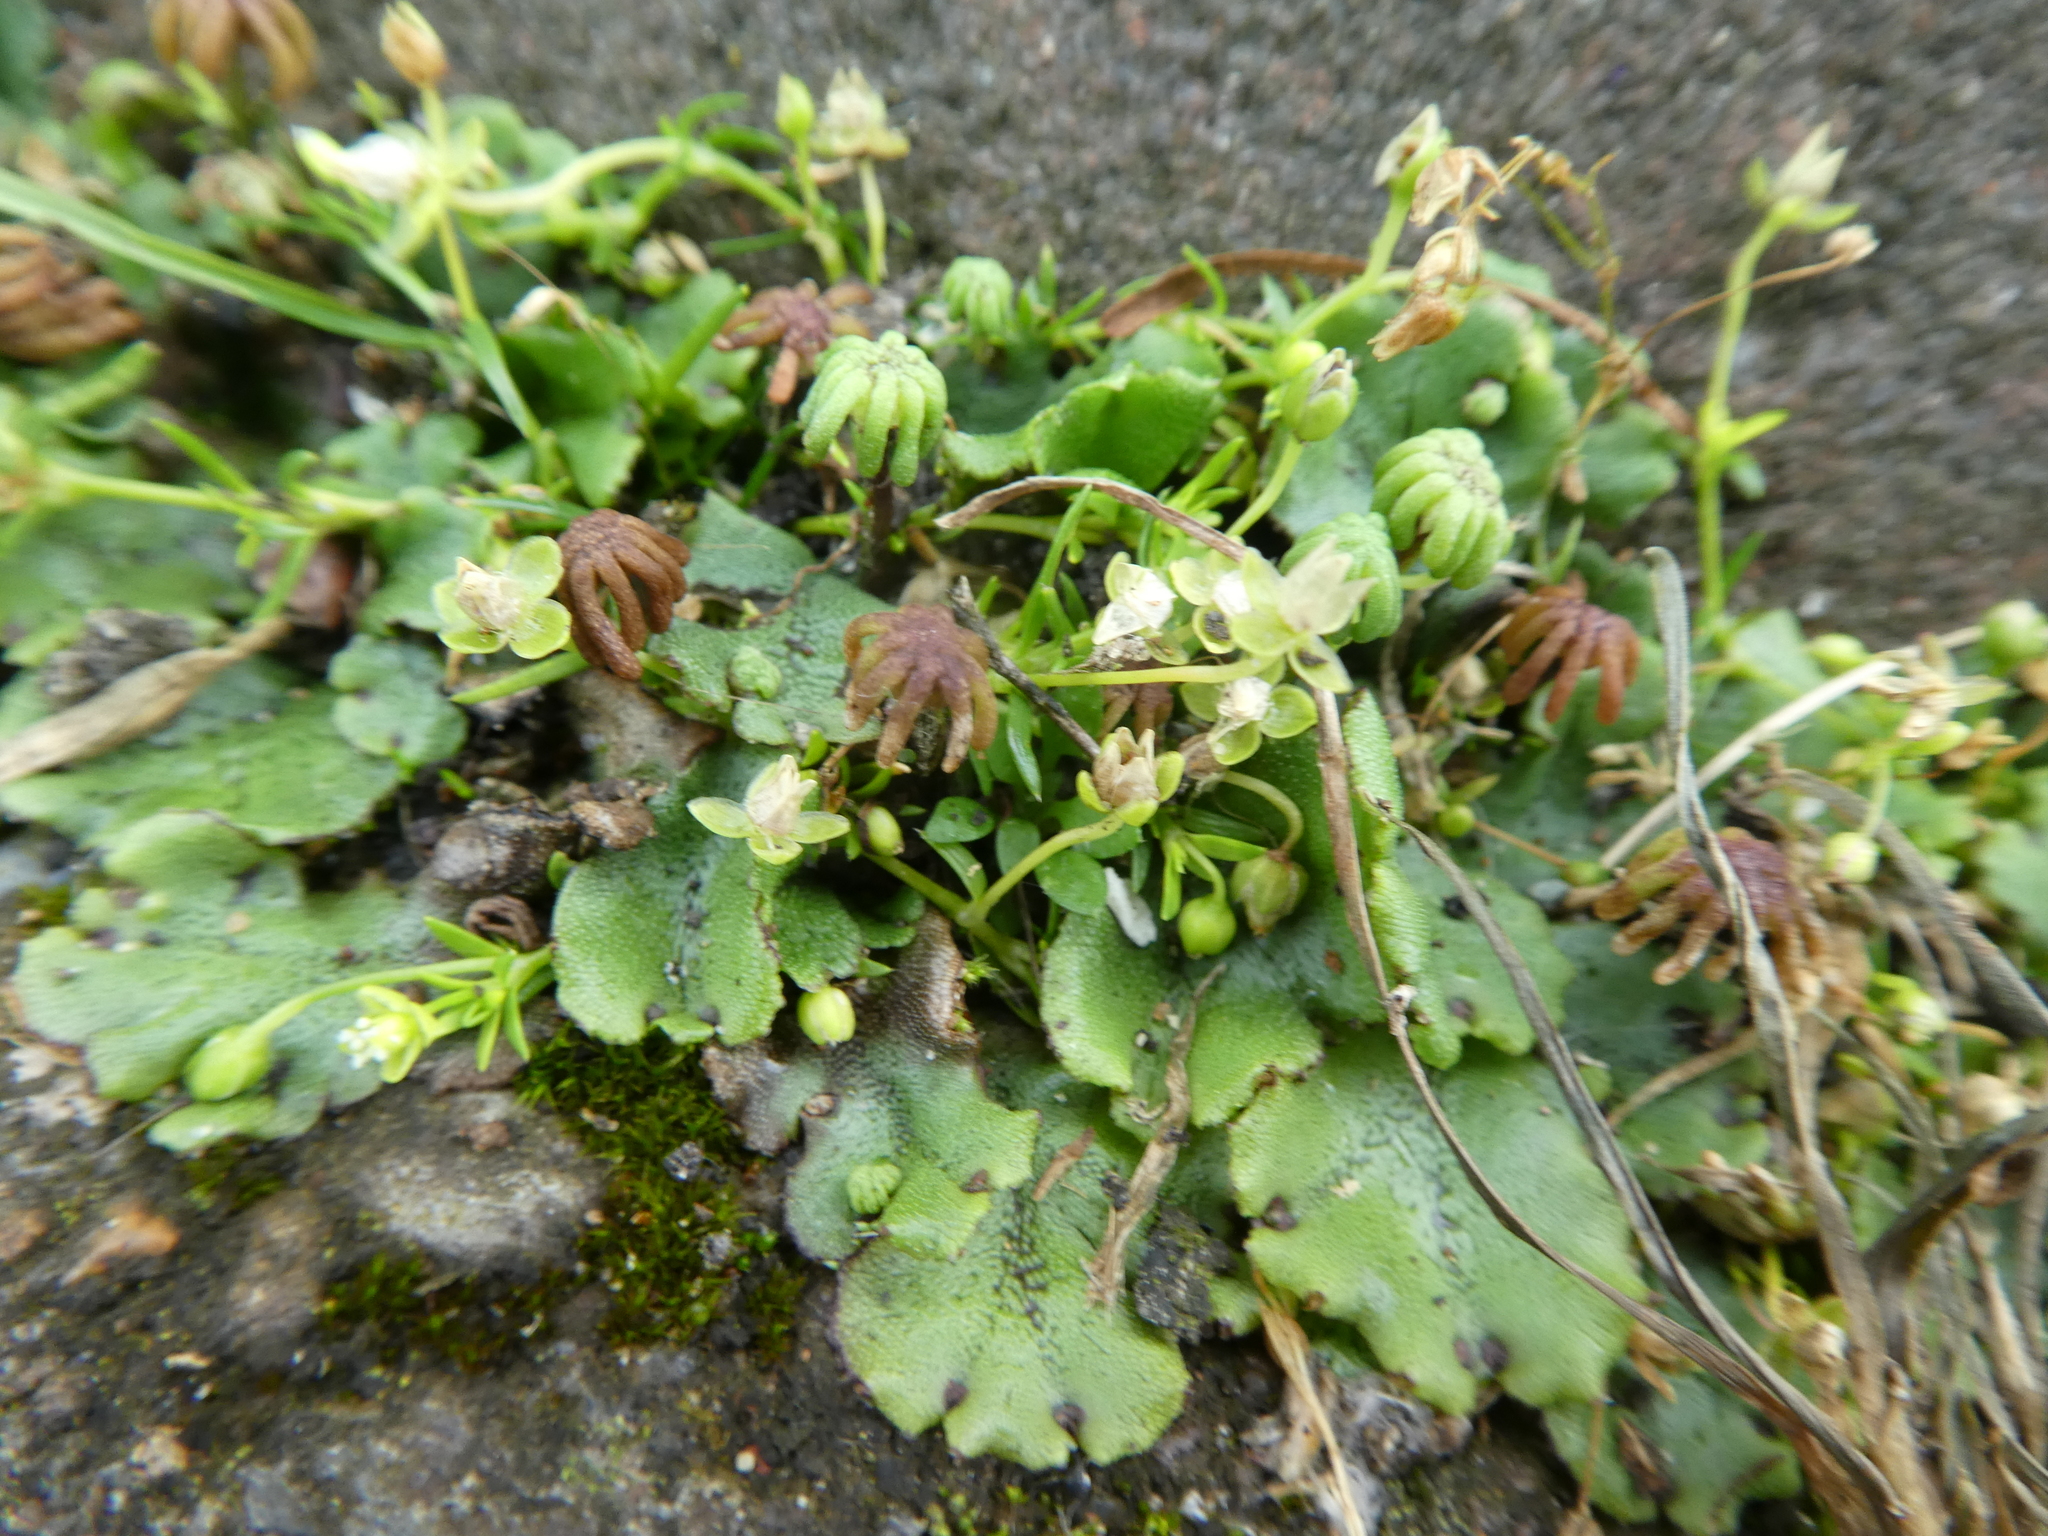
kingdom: Plantae
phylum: Marchantiophyta
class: Marchantiopsida
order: Marchantiales
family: Marchantiaceae
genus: Marchantia
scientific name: Marchantia polymorpha
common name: Common liverwort
